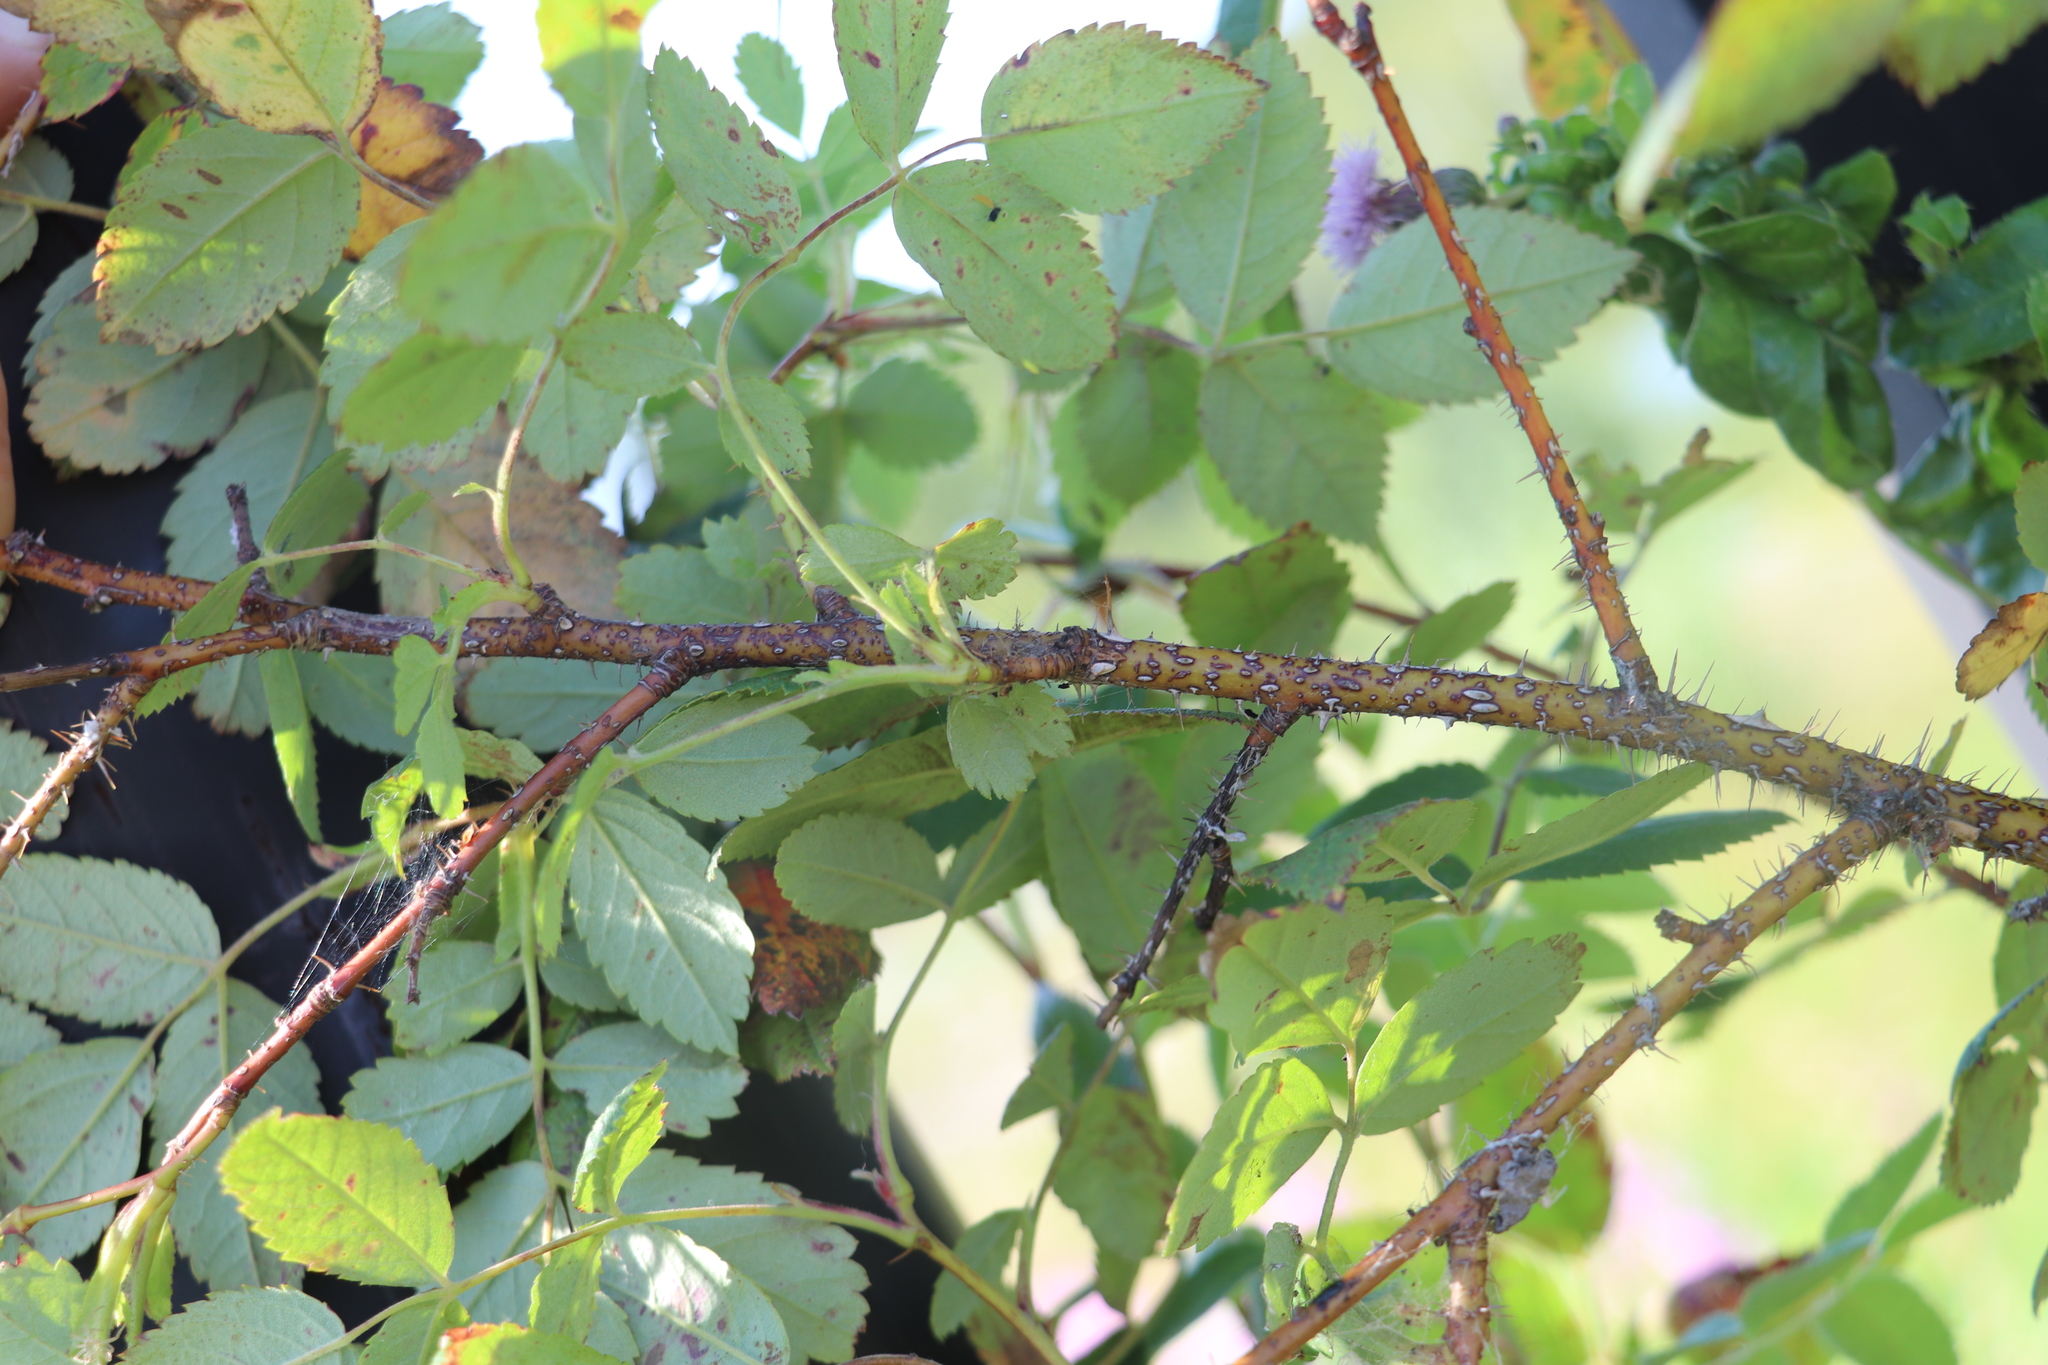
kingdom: Plantae
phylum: Tracheophyta
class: Magnoliopsida
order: Rosales
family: Rosaceae
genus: Rosa
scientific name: Rosa majalis
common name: Cinnamon rose
